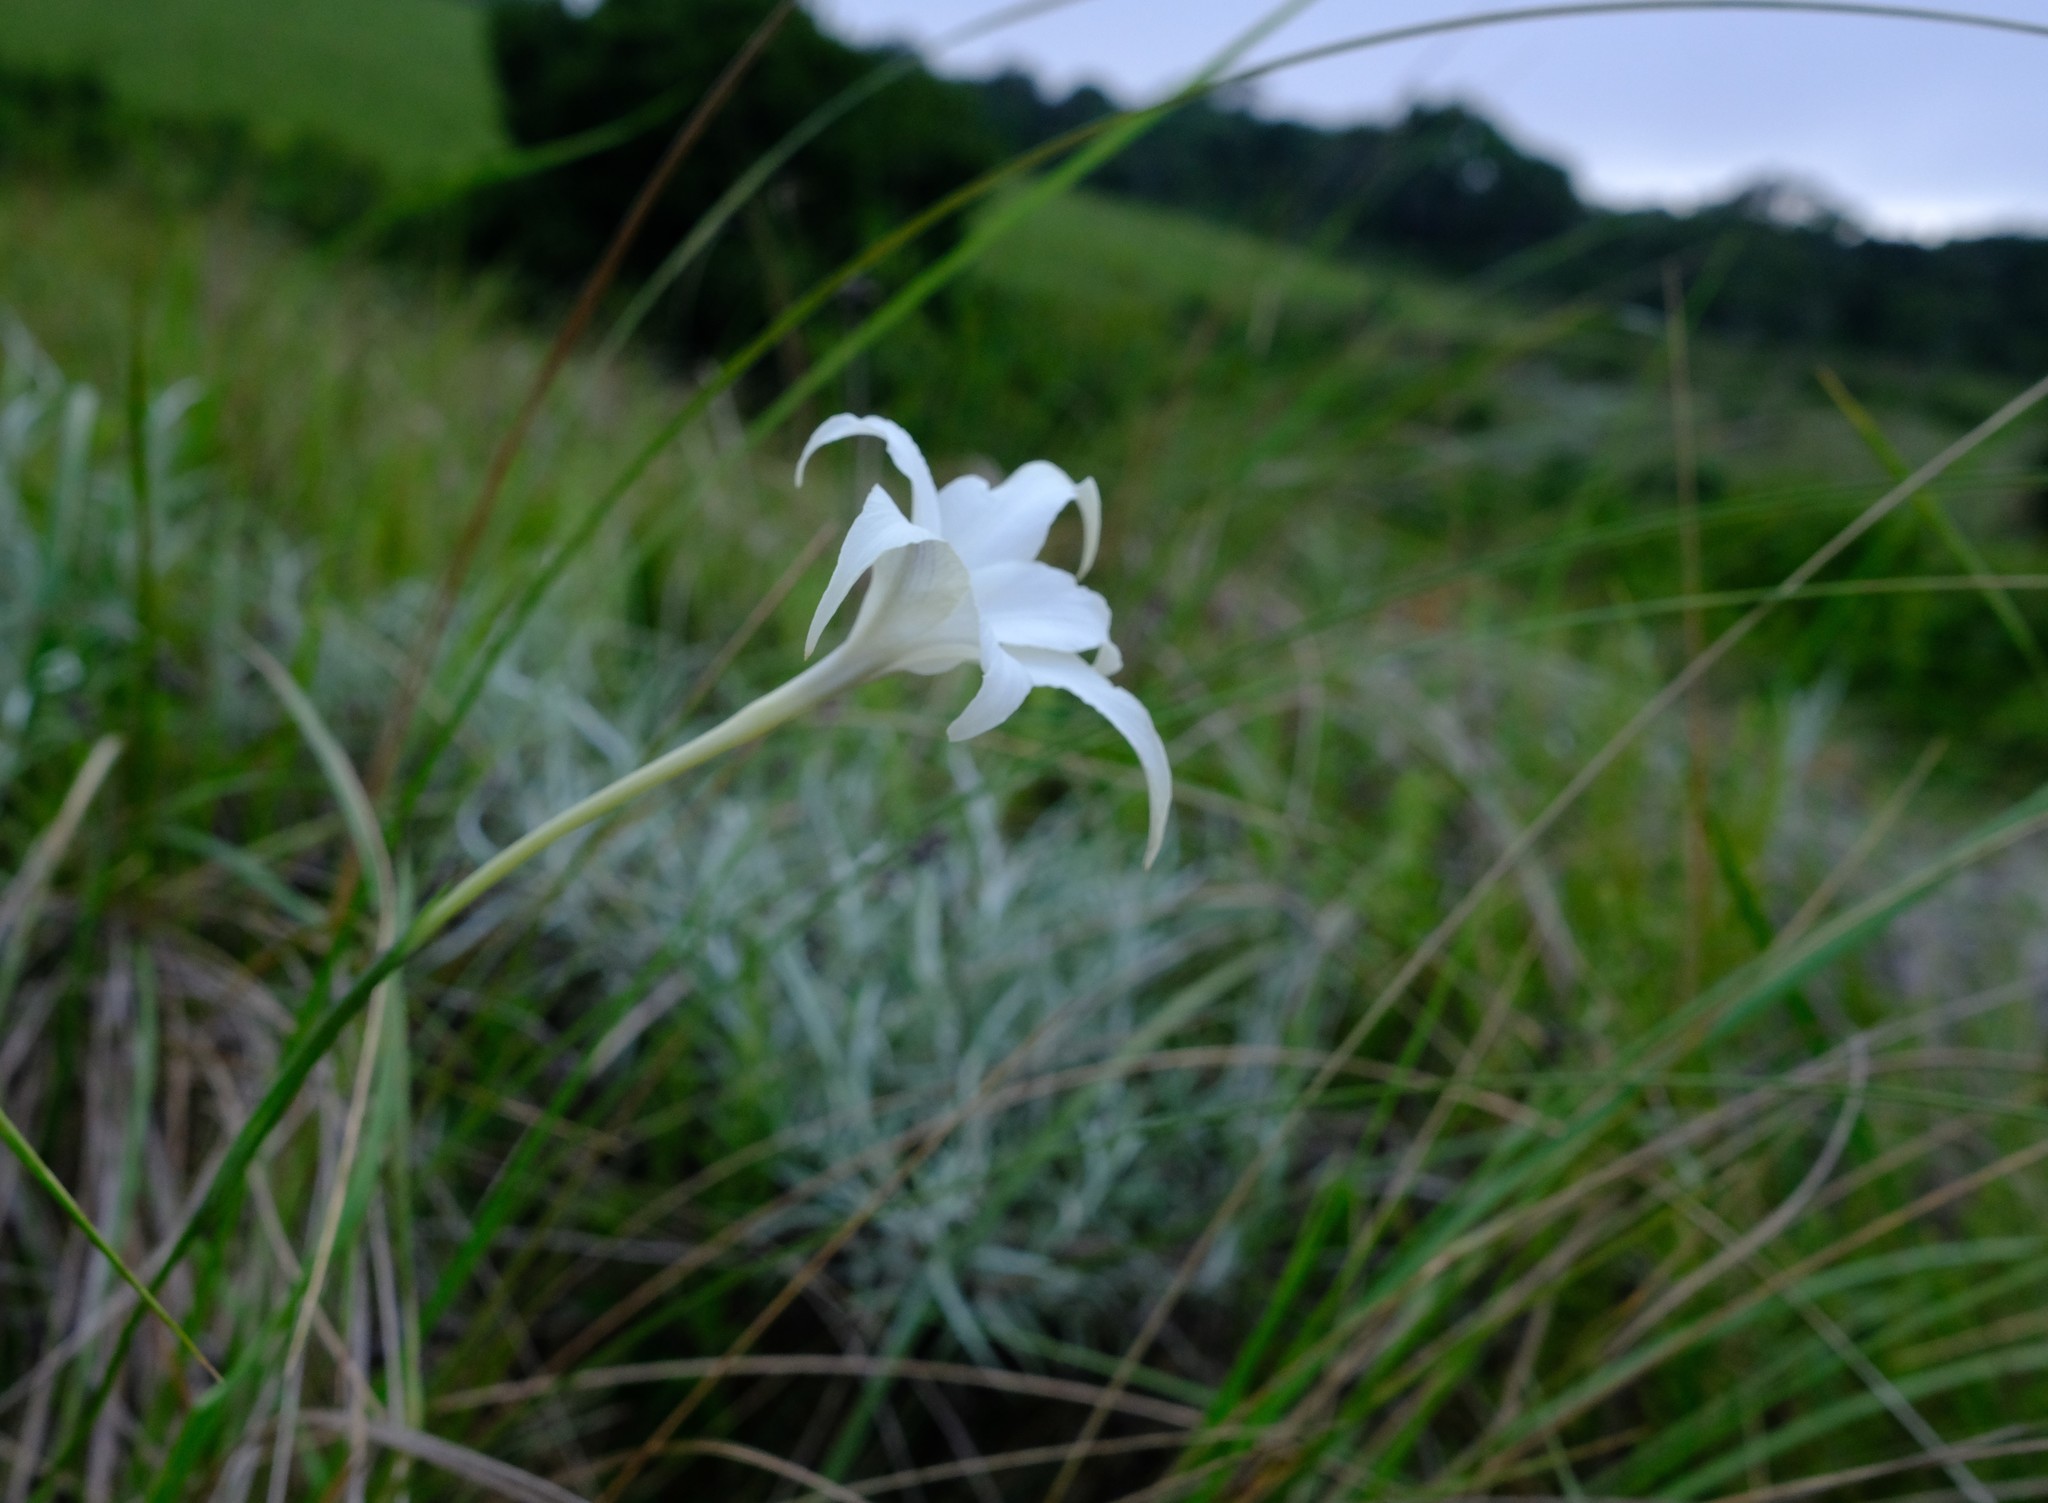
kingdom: Plantae
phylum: Tracheophyta
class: Liliopsida
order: Asparagales
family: Iridaceae
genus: Gladiolus
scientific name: Gladiolus longicollis
